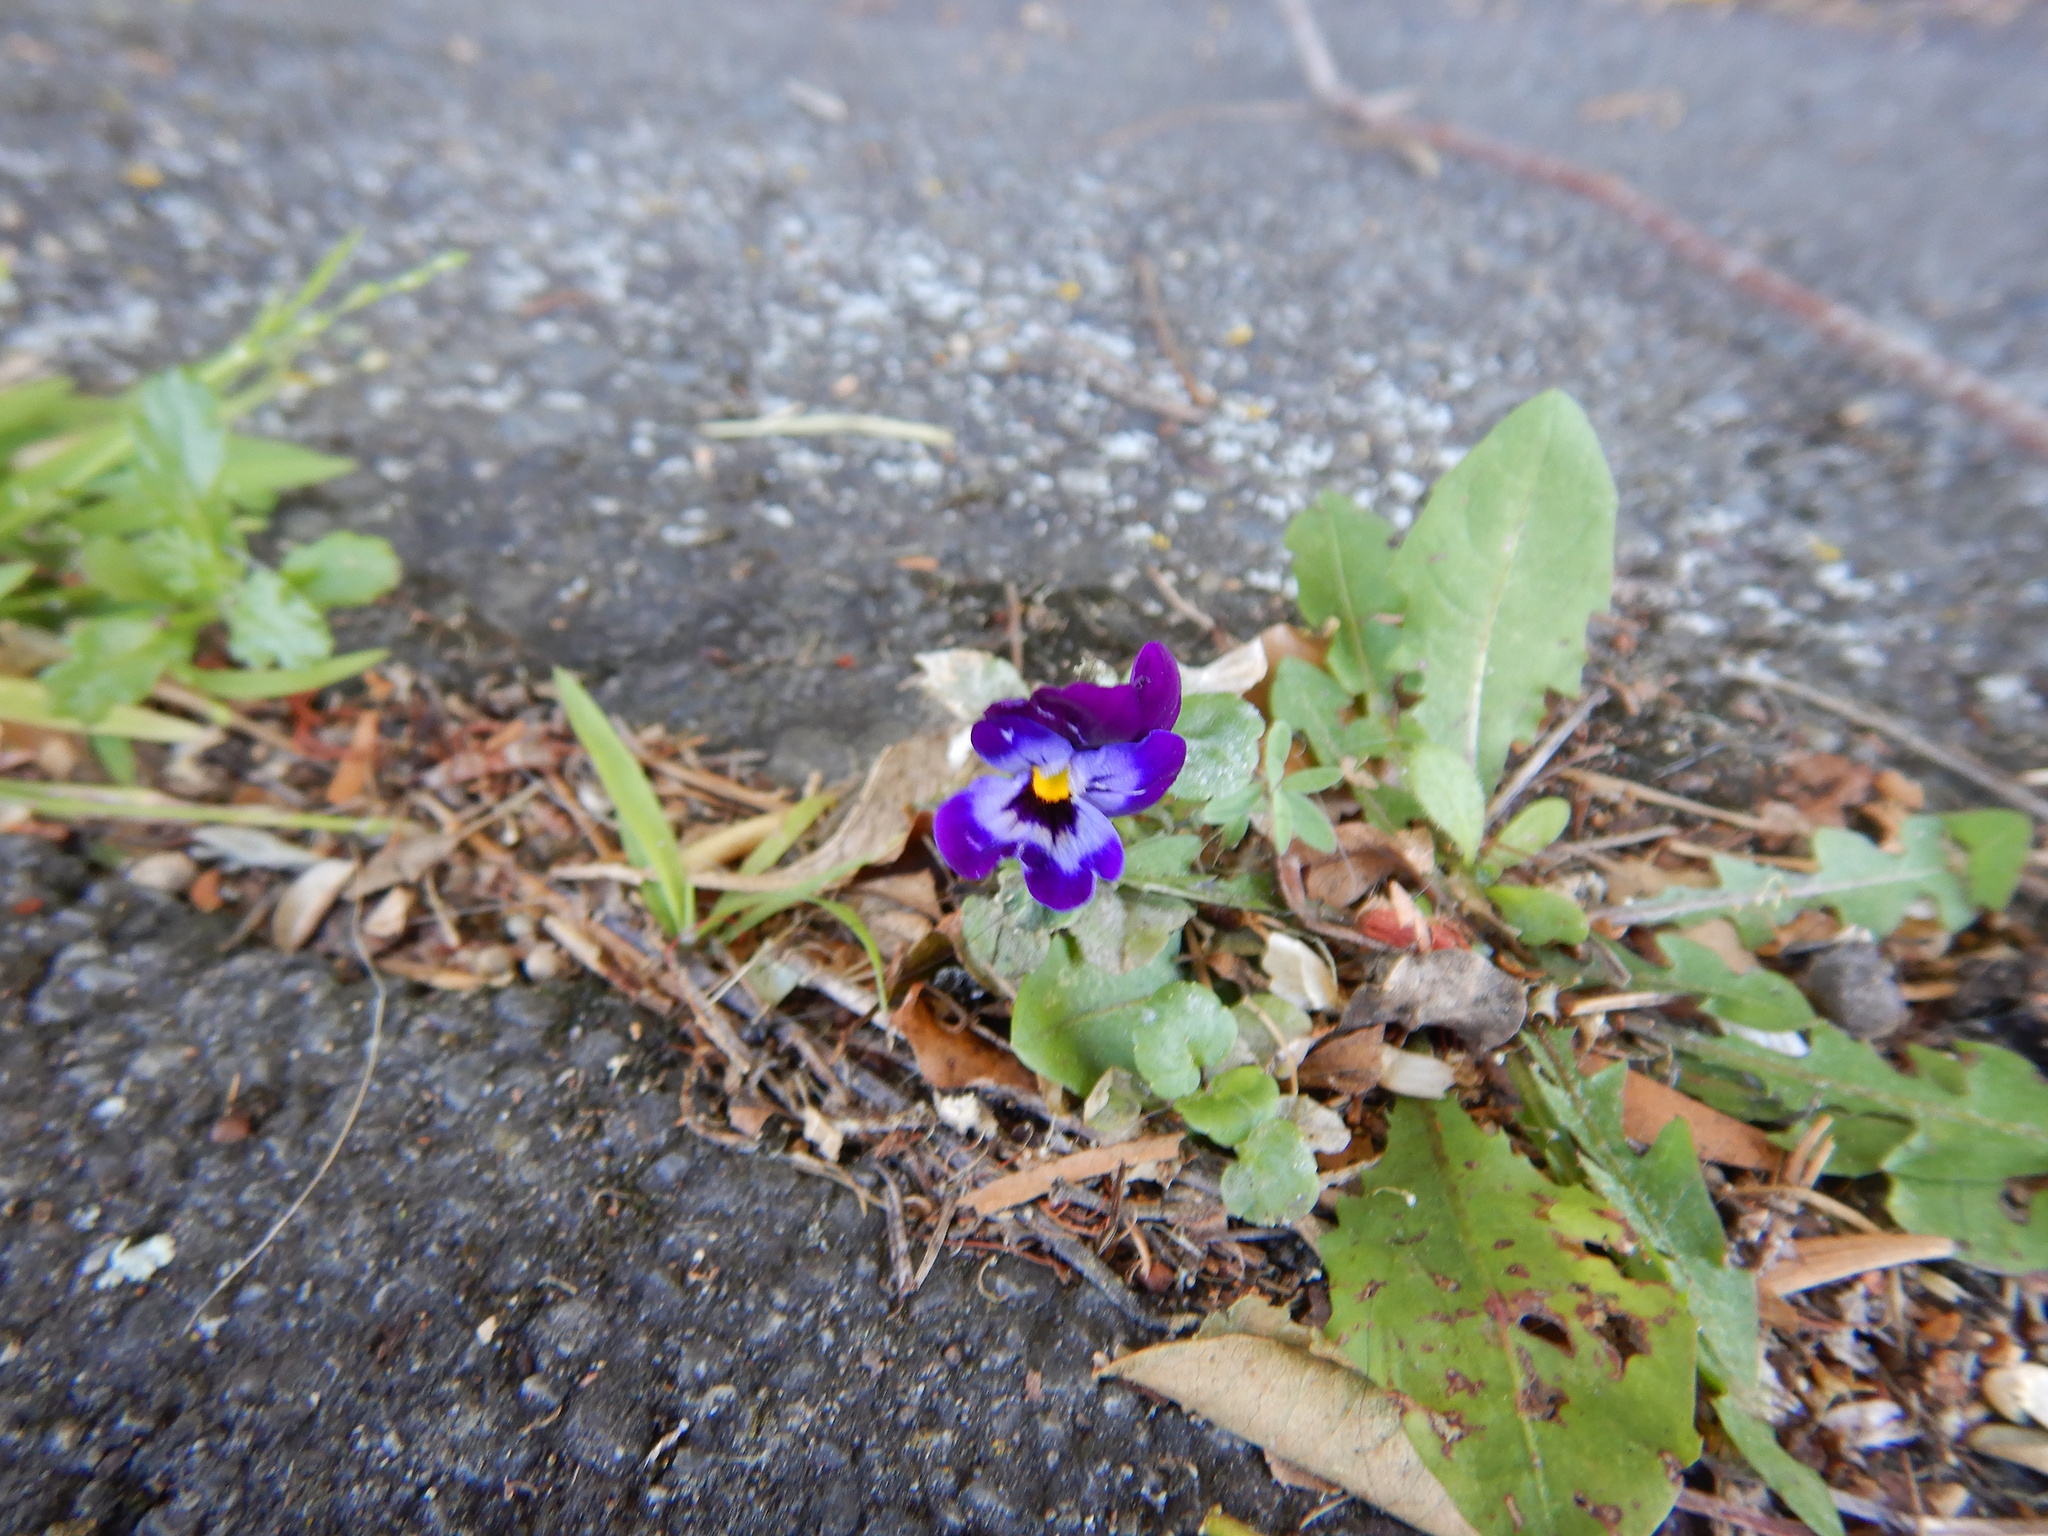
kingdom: Plantae
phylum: Tracheophyta
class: Magnoliopsida
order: Malpighiales
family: Violaceae
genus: Viola
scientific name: Viola wittrockiana
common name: Garden pansy
